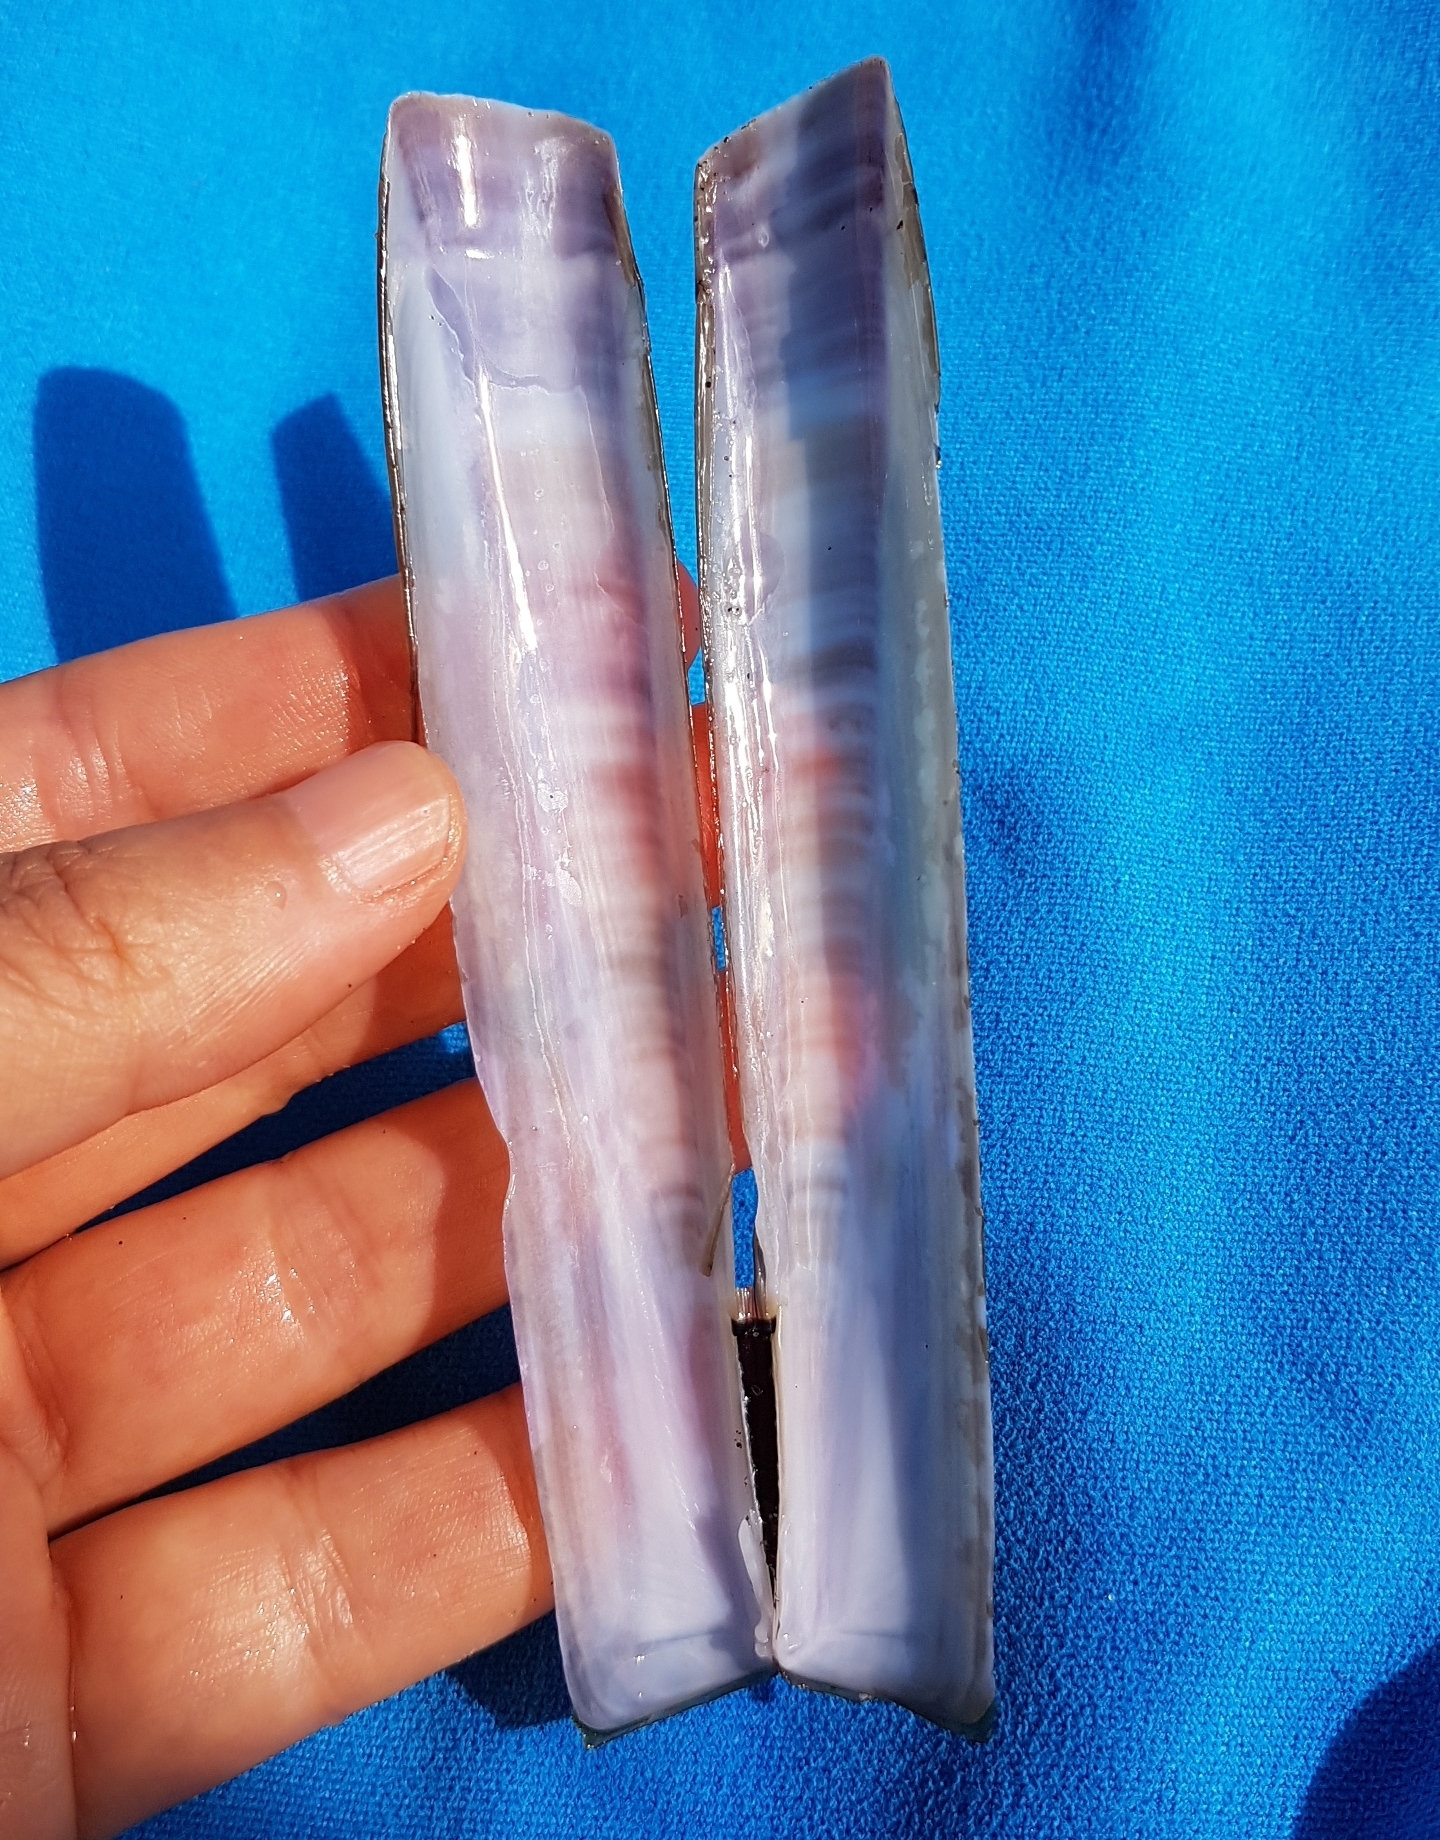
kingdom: Animalia
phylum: Mollusca
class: Bivalvia
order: Adapedonta
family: Pharidae
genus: Ensis
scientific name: Ensis minor
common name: Minor jackknife clam
